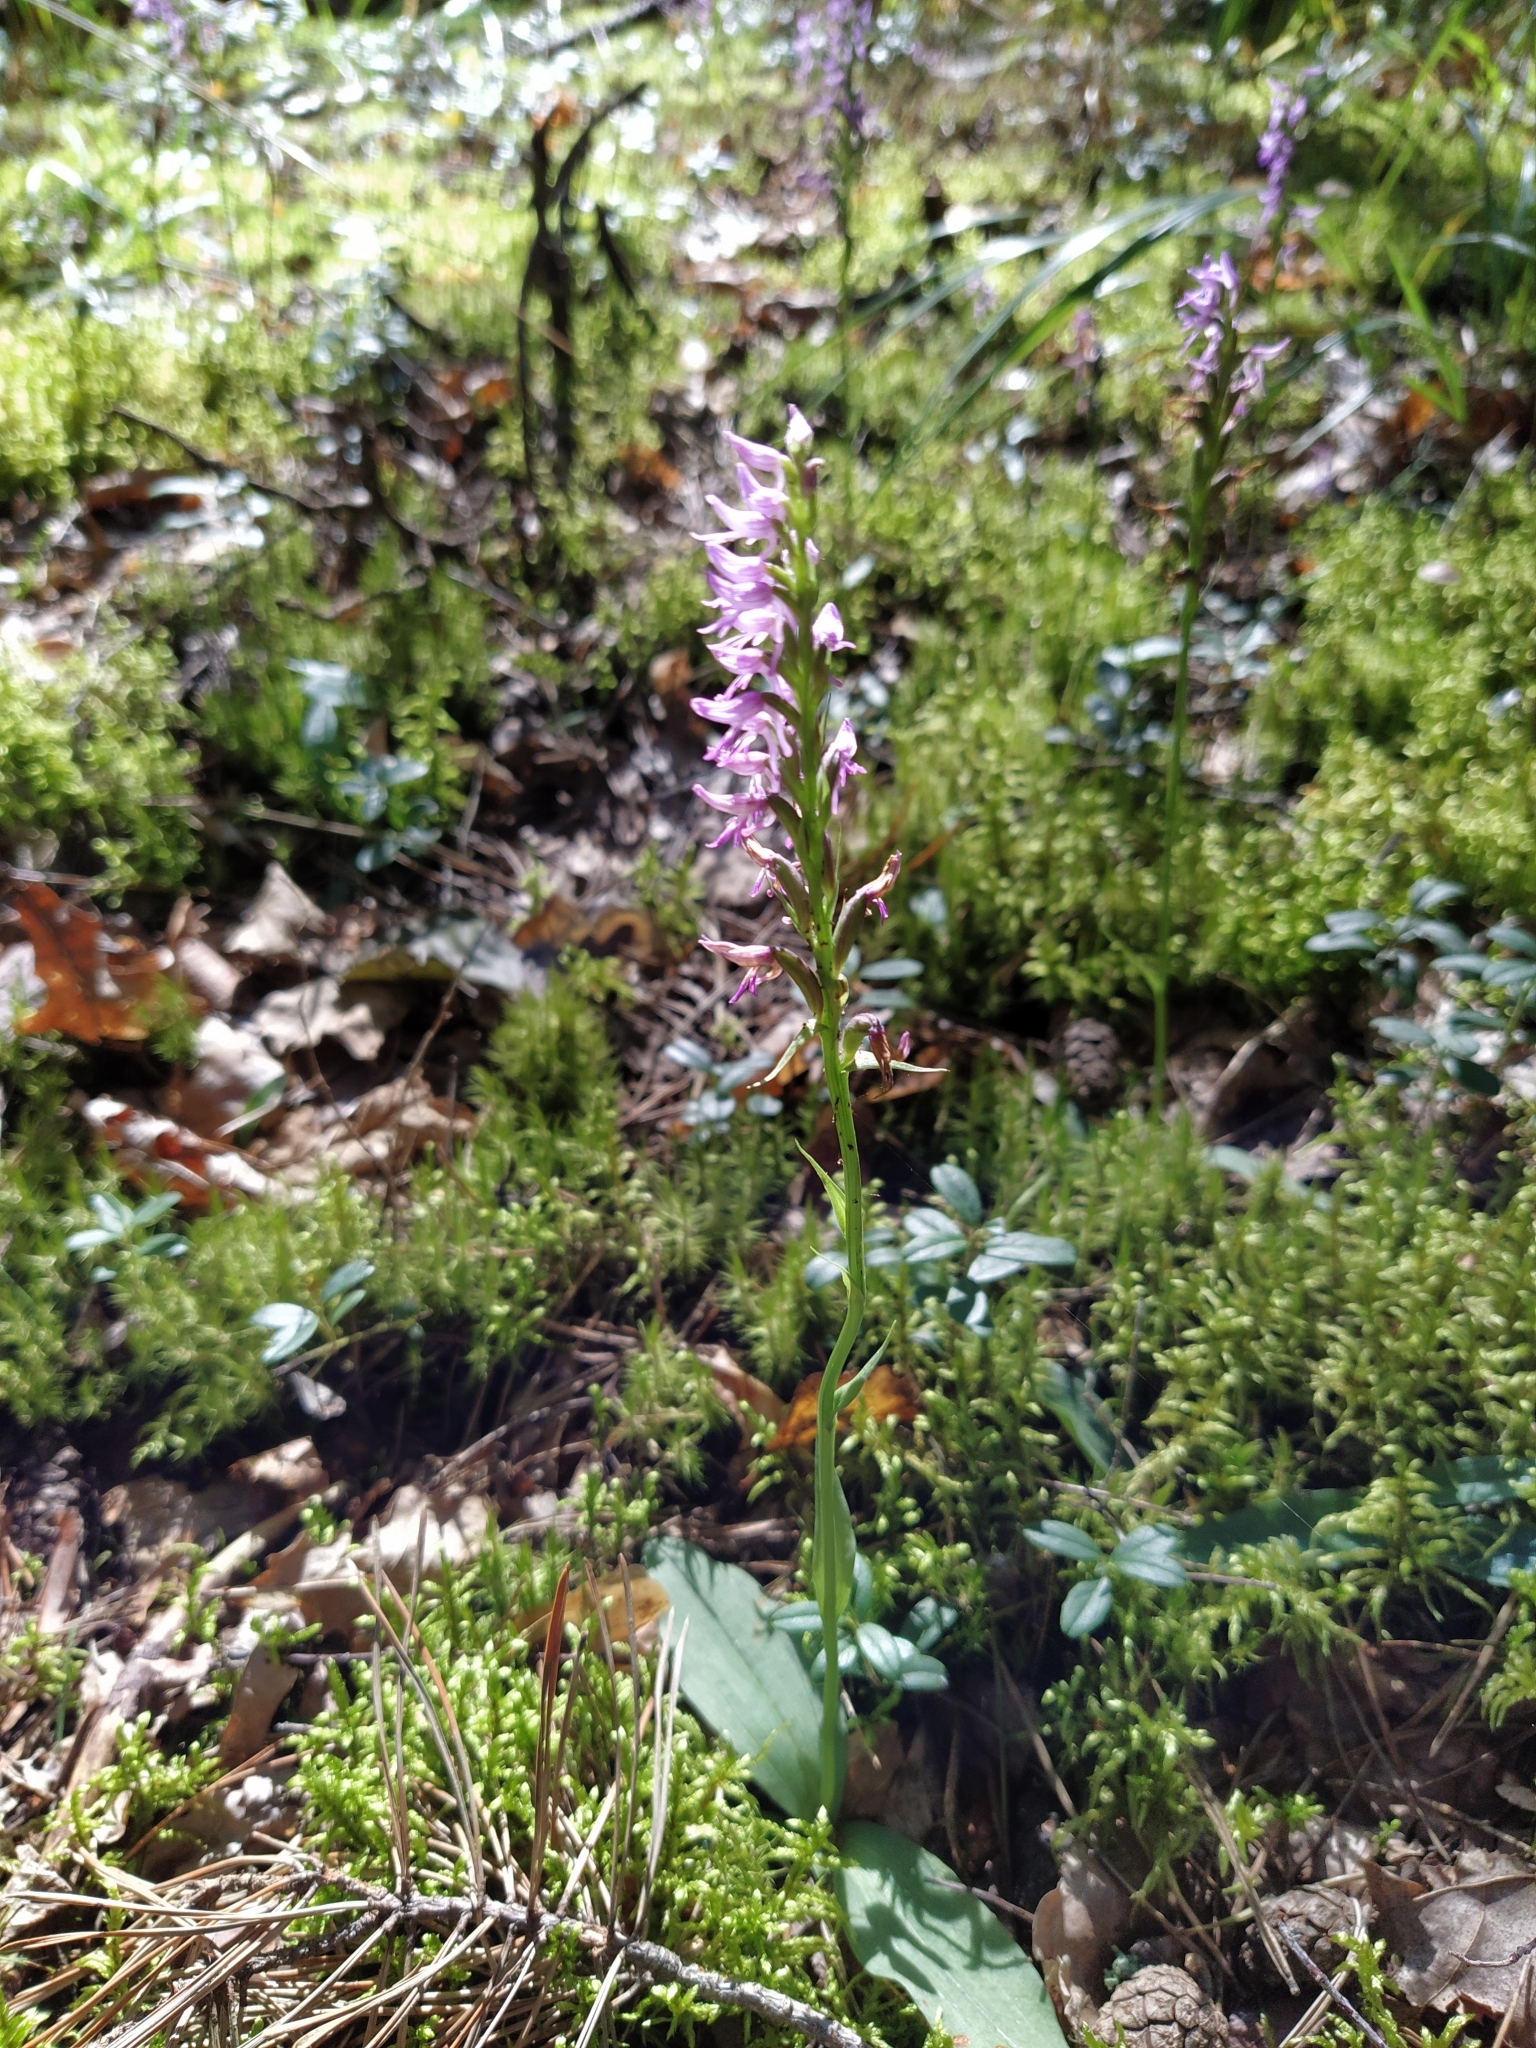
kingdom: Plantae
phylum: Tracheophyta
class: Liliopsida
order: Asparagales
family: Orchidaceae
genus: Hemipilia
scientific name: Hemipilia cucullata
